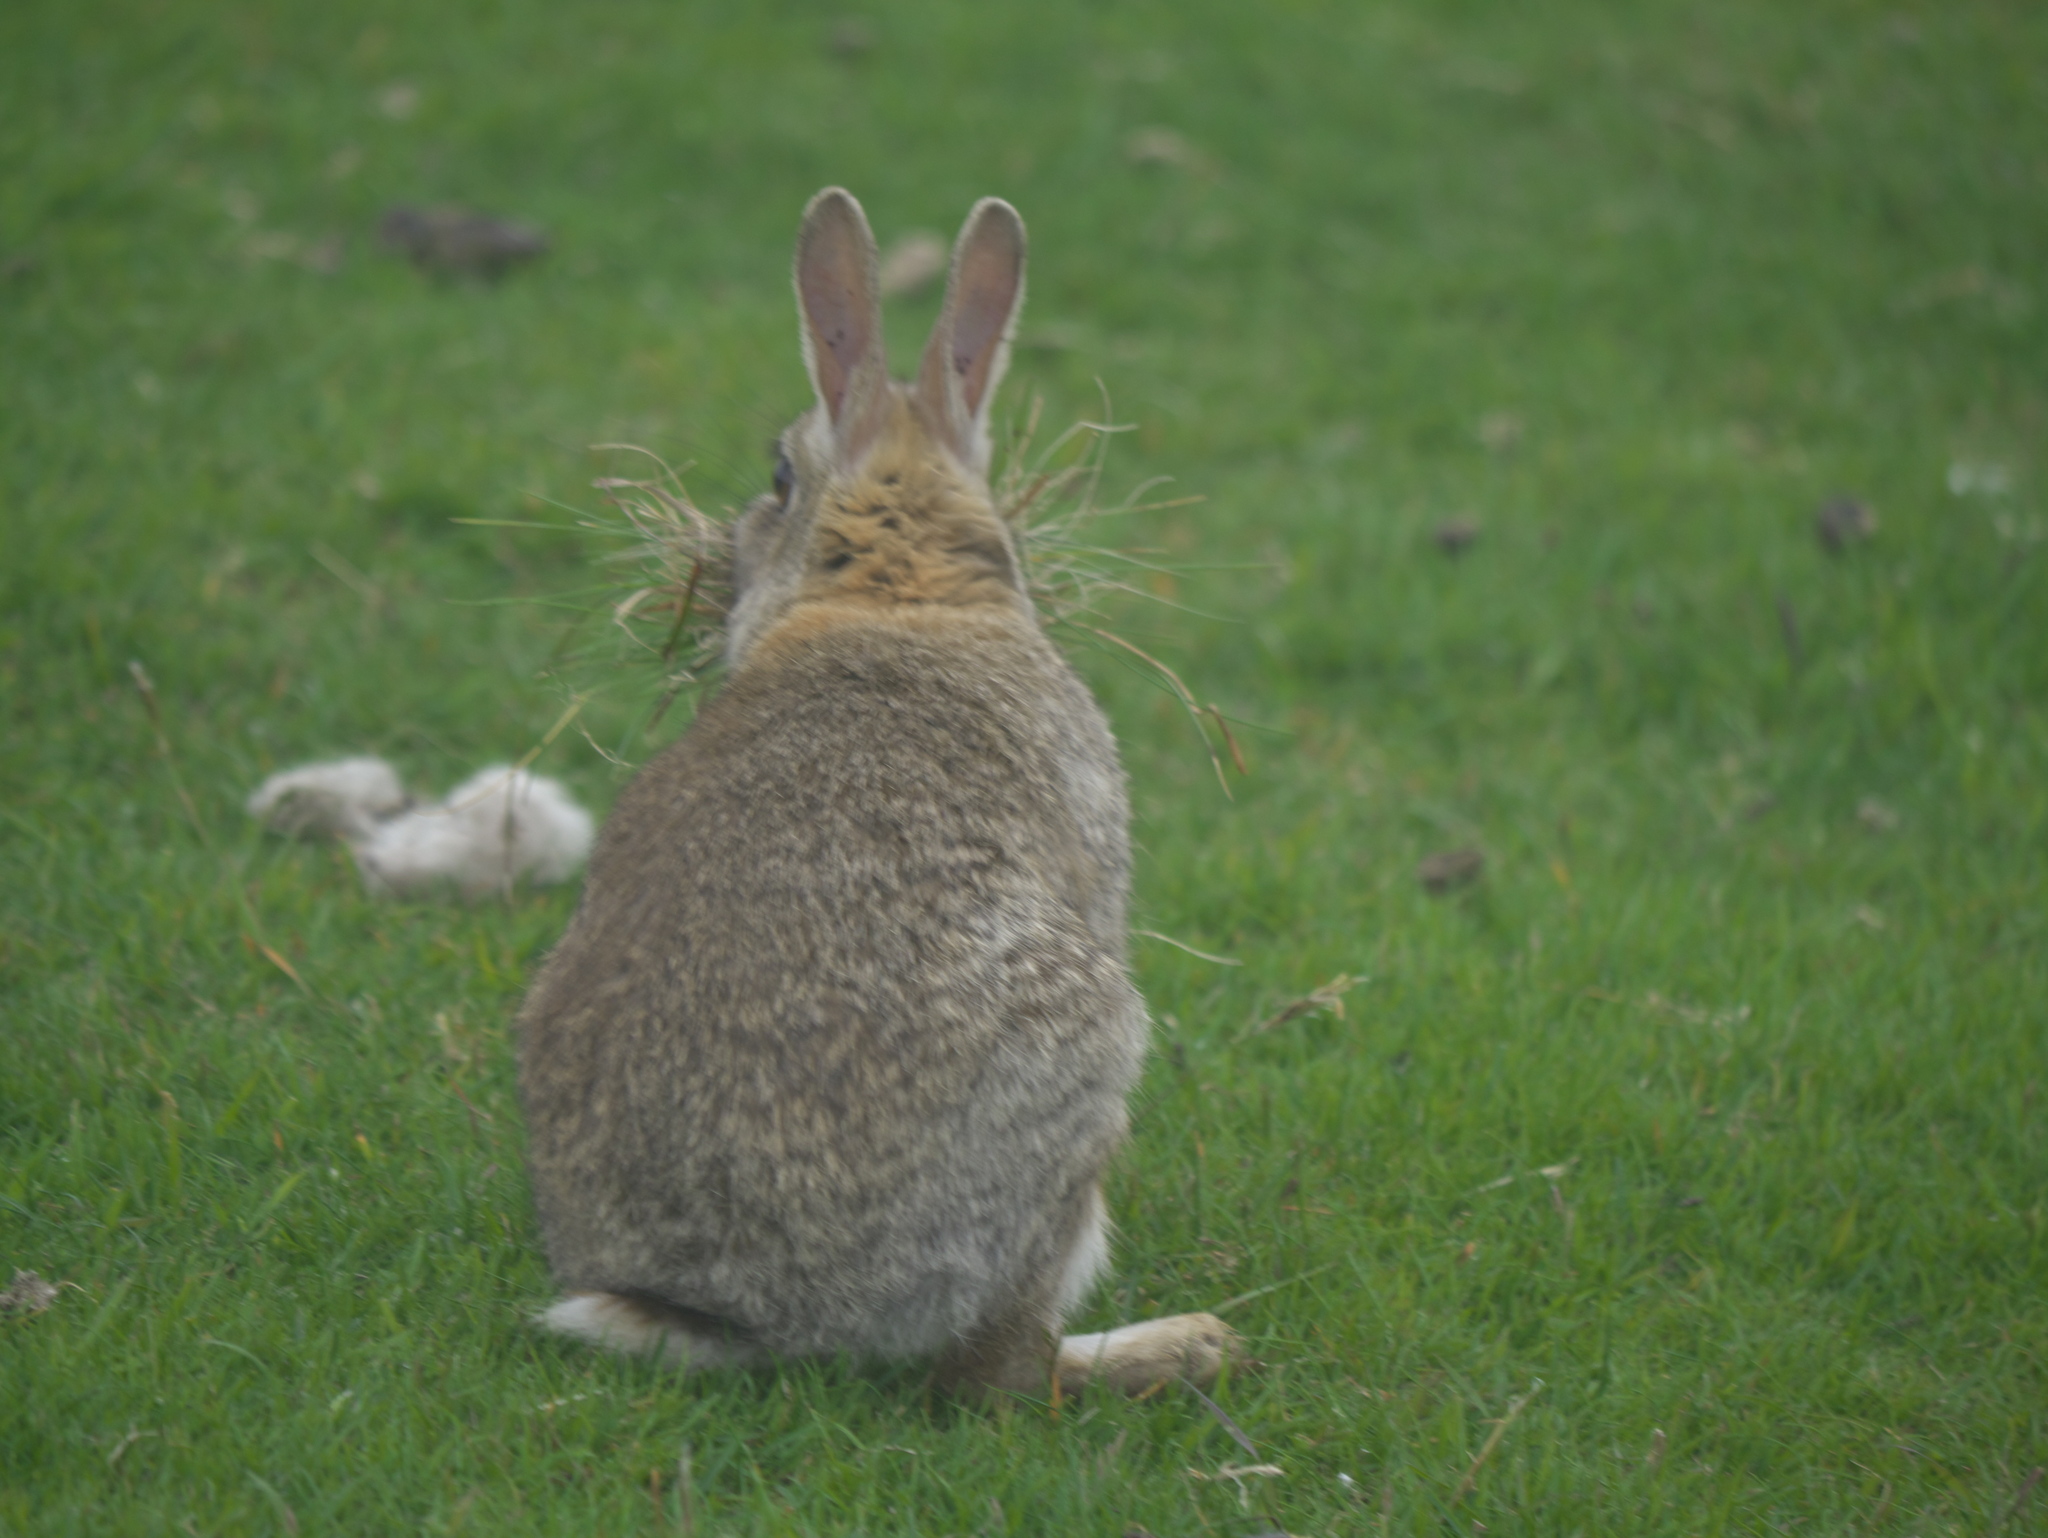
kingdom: Animalia
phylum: Chordata
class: Mammalia
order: Lagomorpha
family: Leporidae
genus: Oryctolagus
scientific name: Oryctolagus cuniculus
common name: European rabbit
